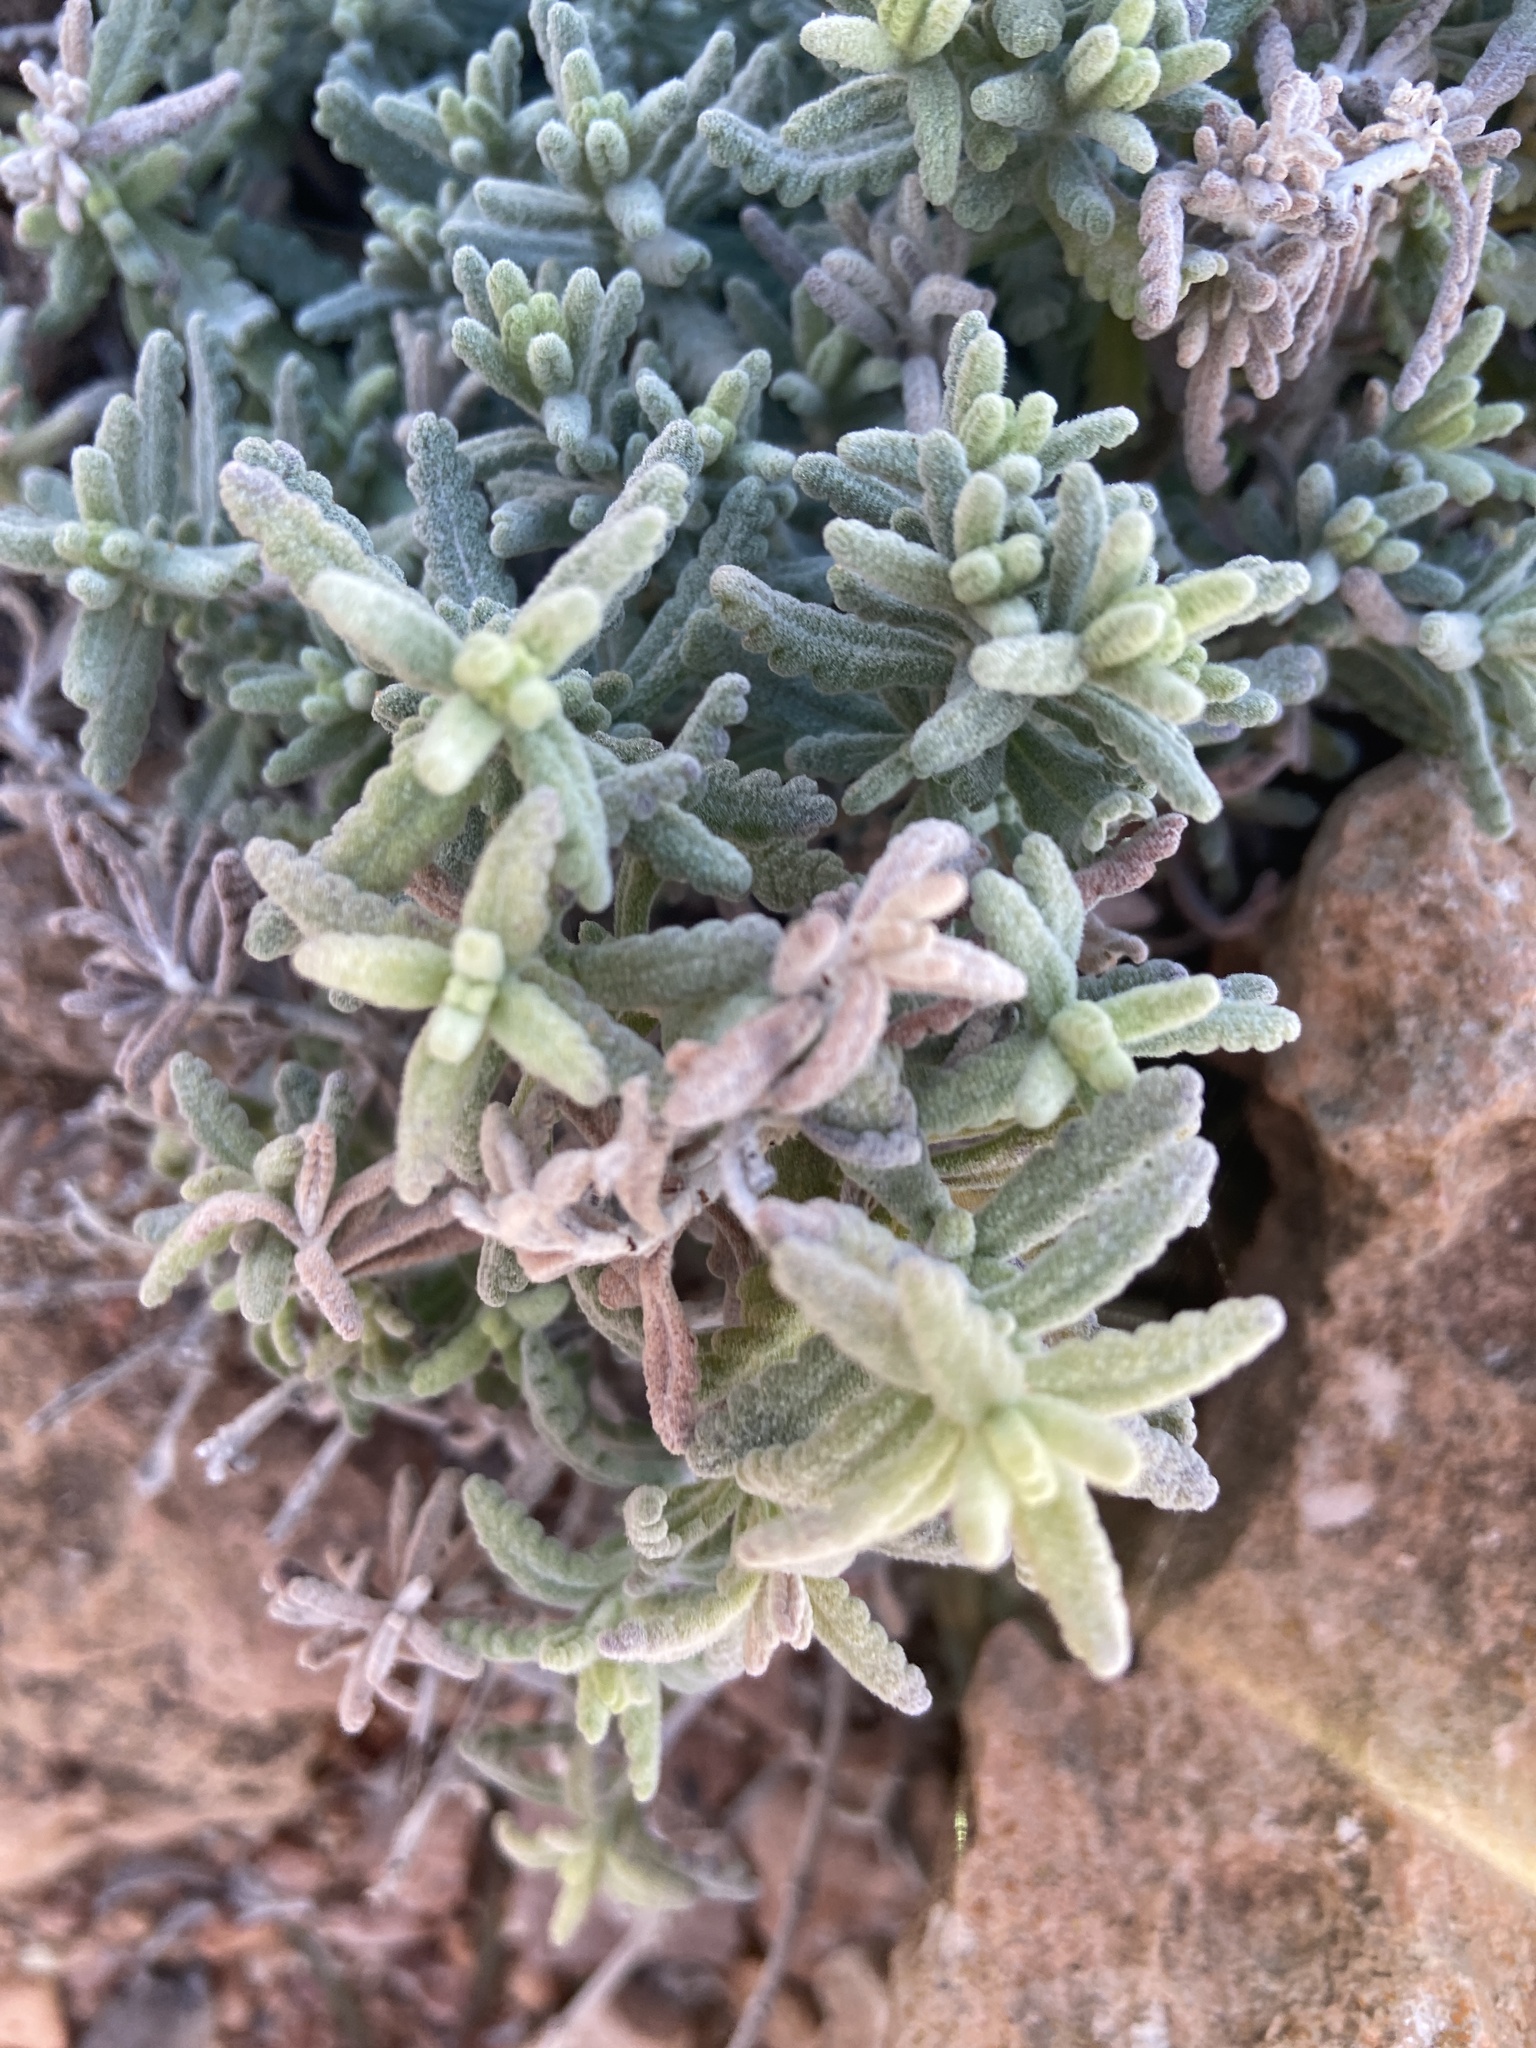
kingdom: Plantae
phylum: Tracheophyta
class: Magnoliopsida
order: Lamiales
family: Lamiaceae
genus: Teucrium
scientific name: Teucrium capitatum
